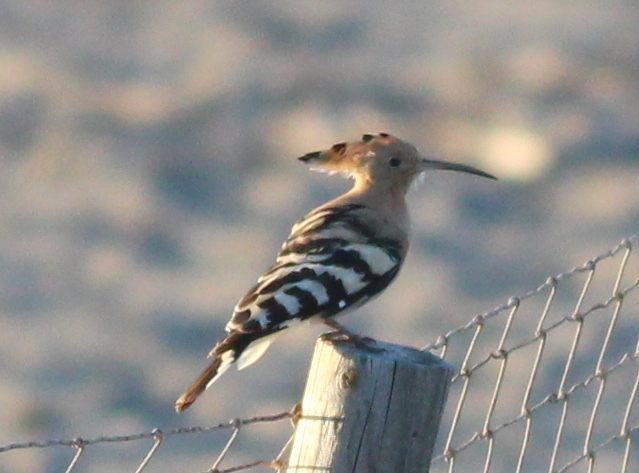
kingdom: Animalia
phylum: Chordata
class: Aves
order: Bucerotiformes
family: Upupidae
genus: Upupa
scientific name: Upupa epops
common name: Eurasian hoopoe
